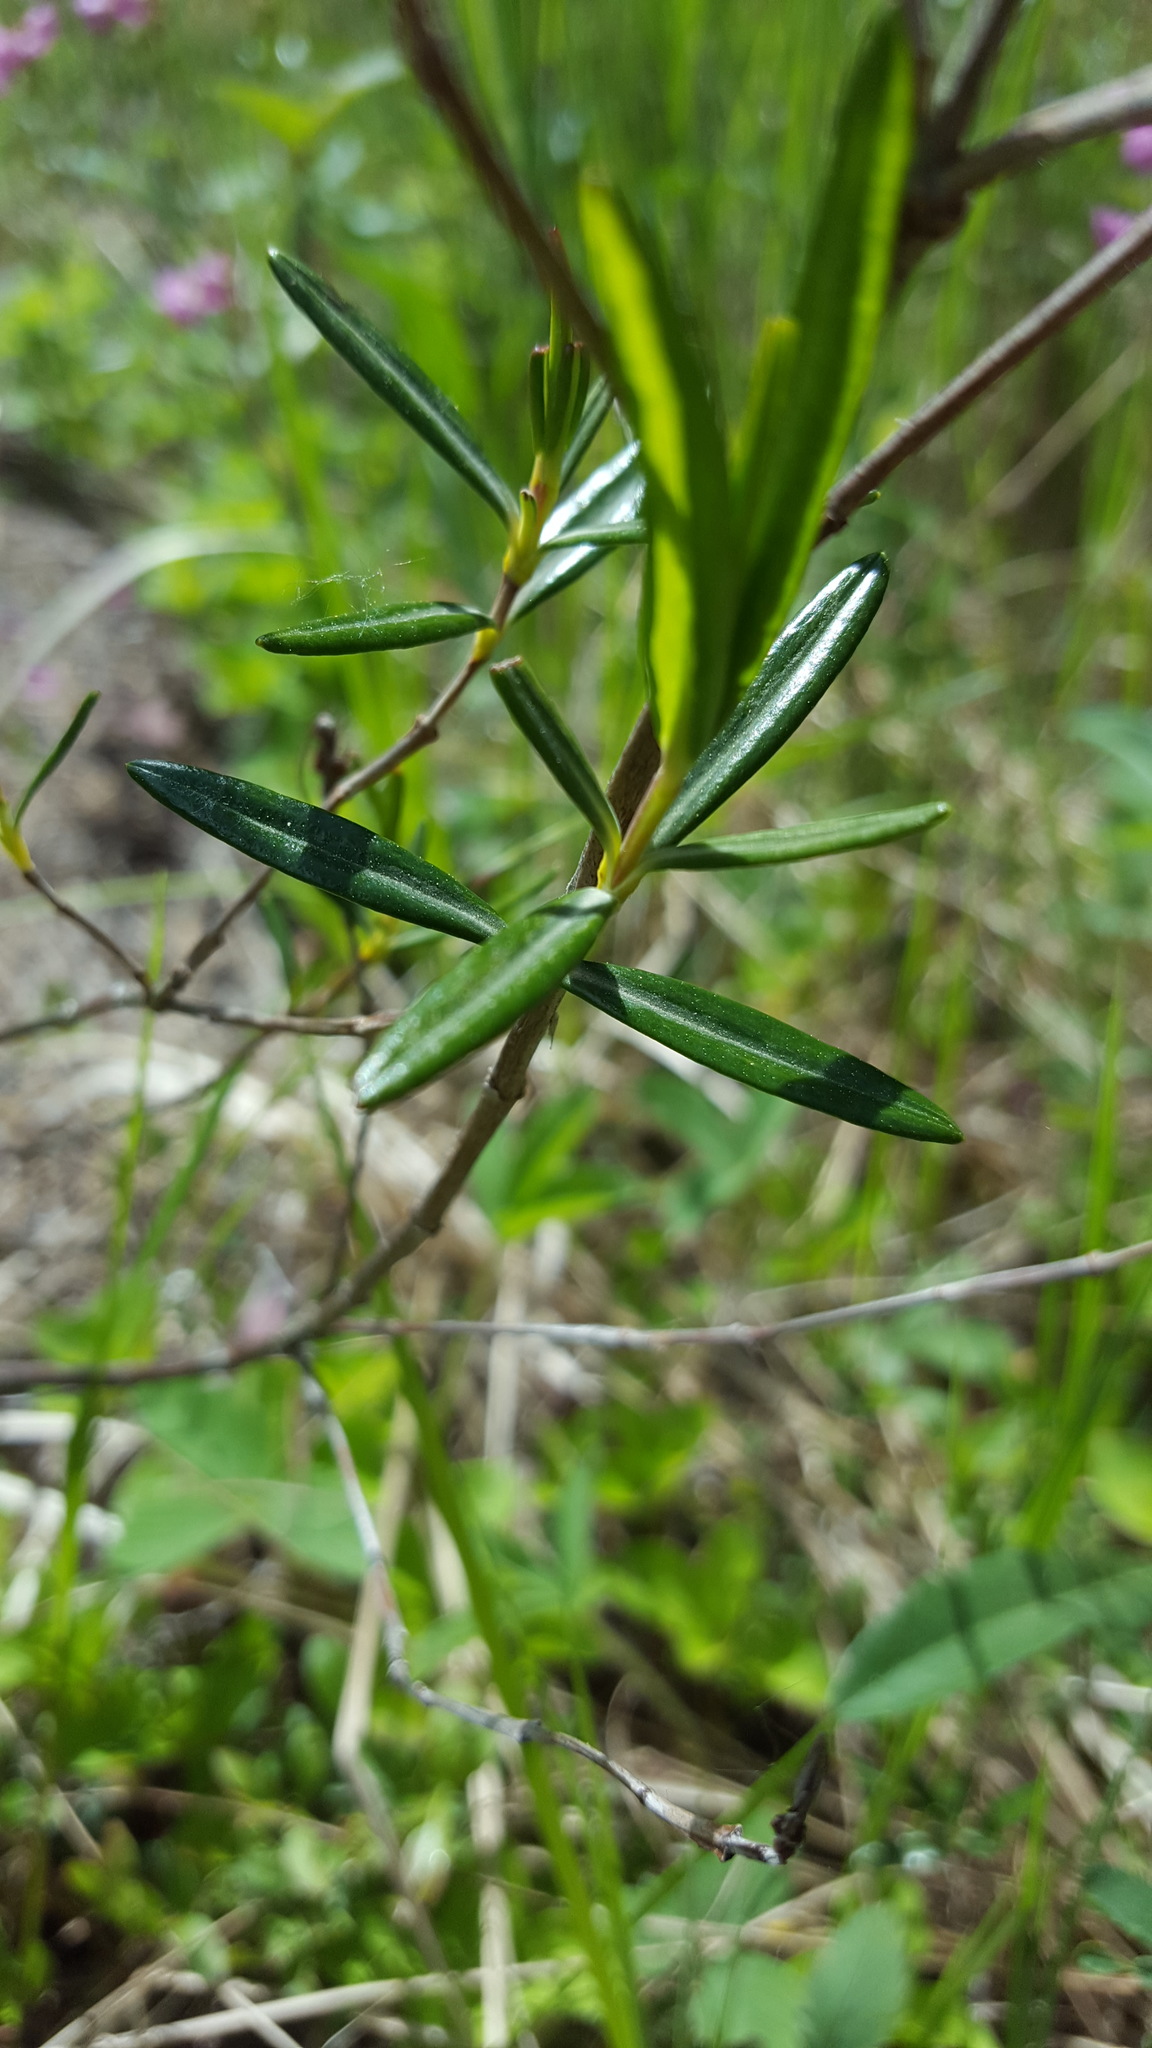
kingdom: Plantae
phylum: Tracheophyta
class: Magnoliopsida
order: Ericales
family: Ericaceae
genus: Kalmia
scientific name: Kalmia polifolia
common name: Bog-laurel
